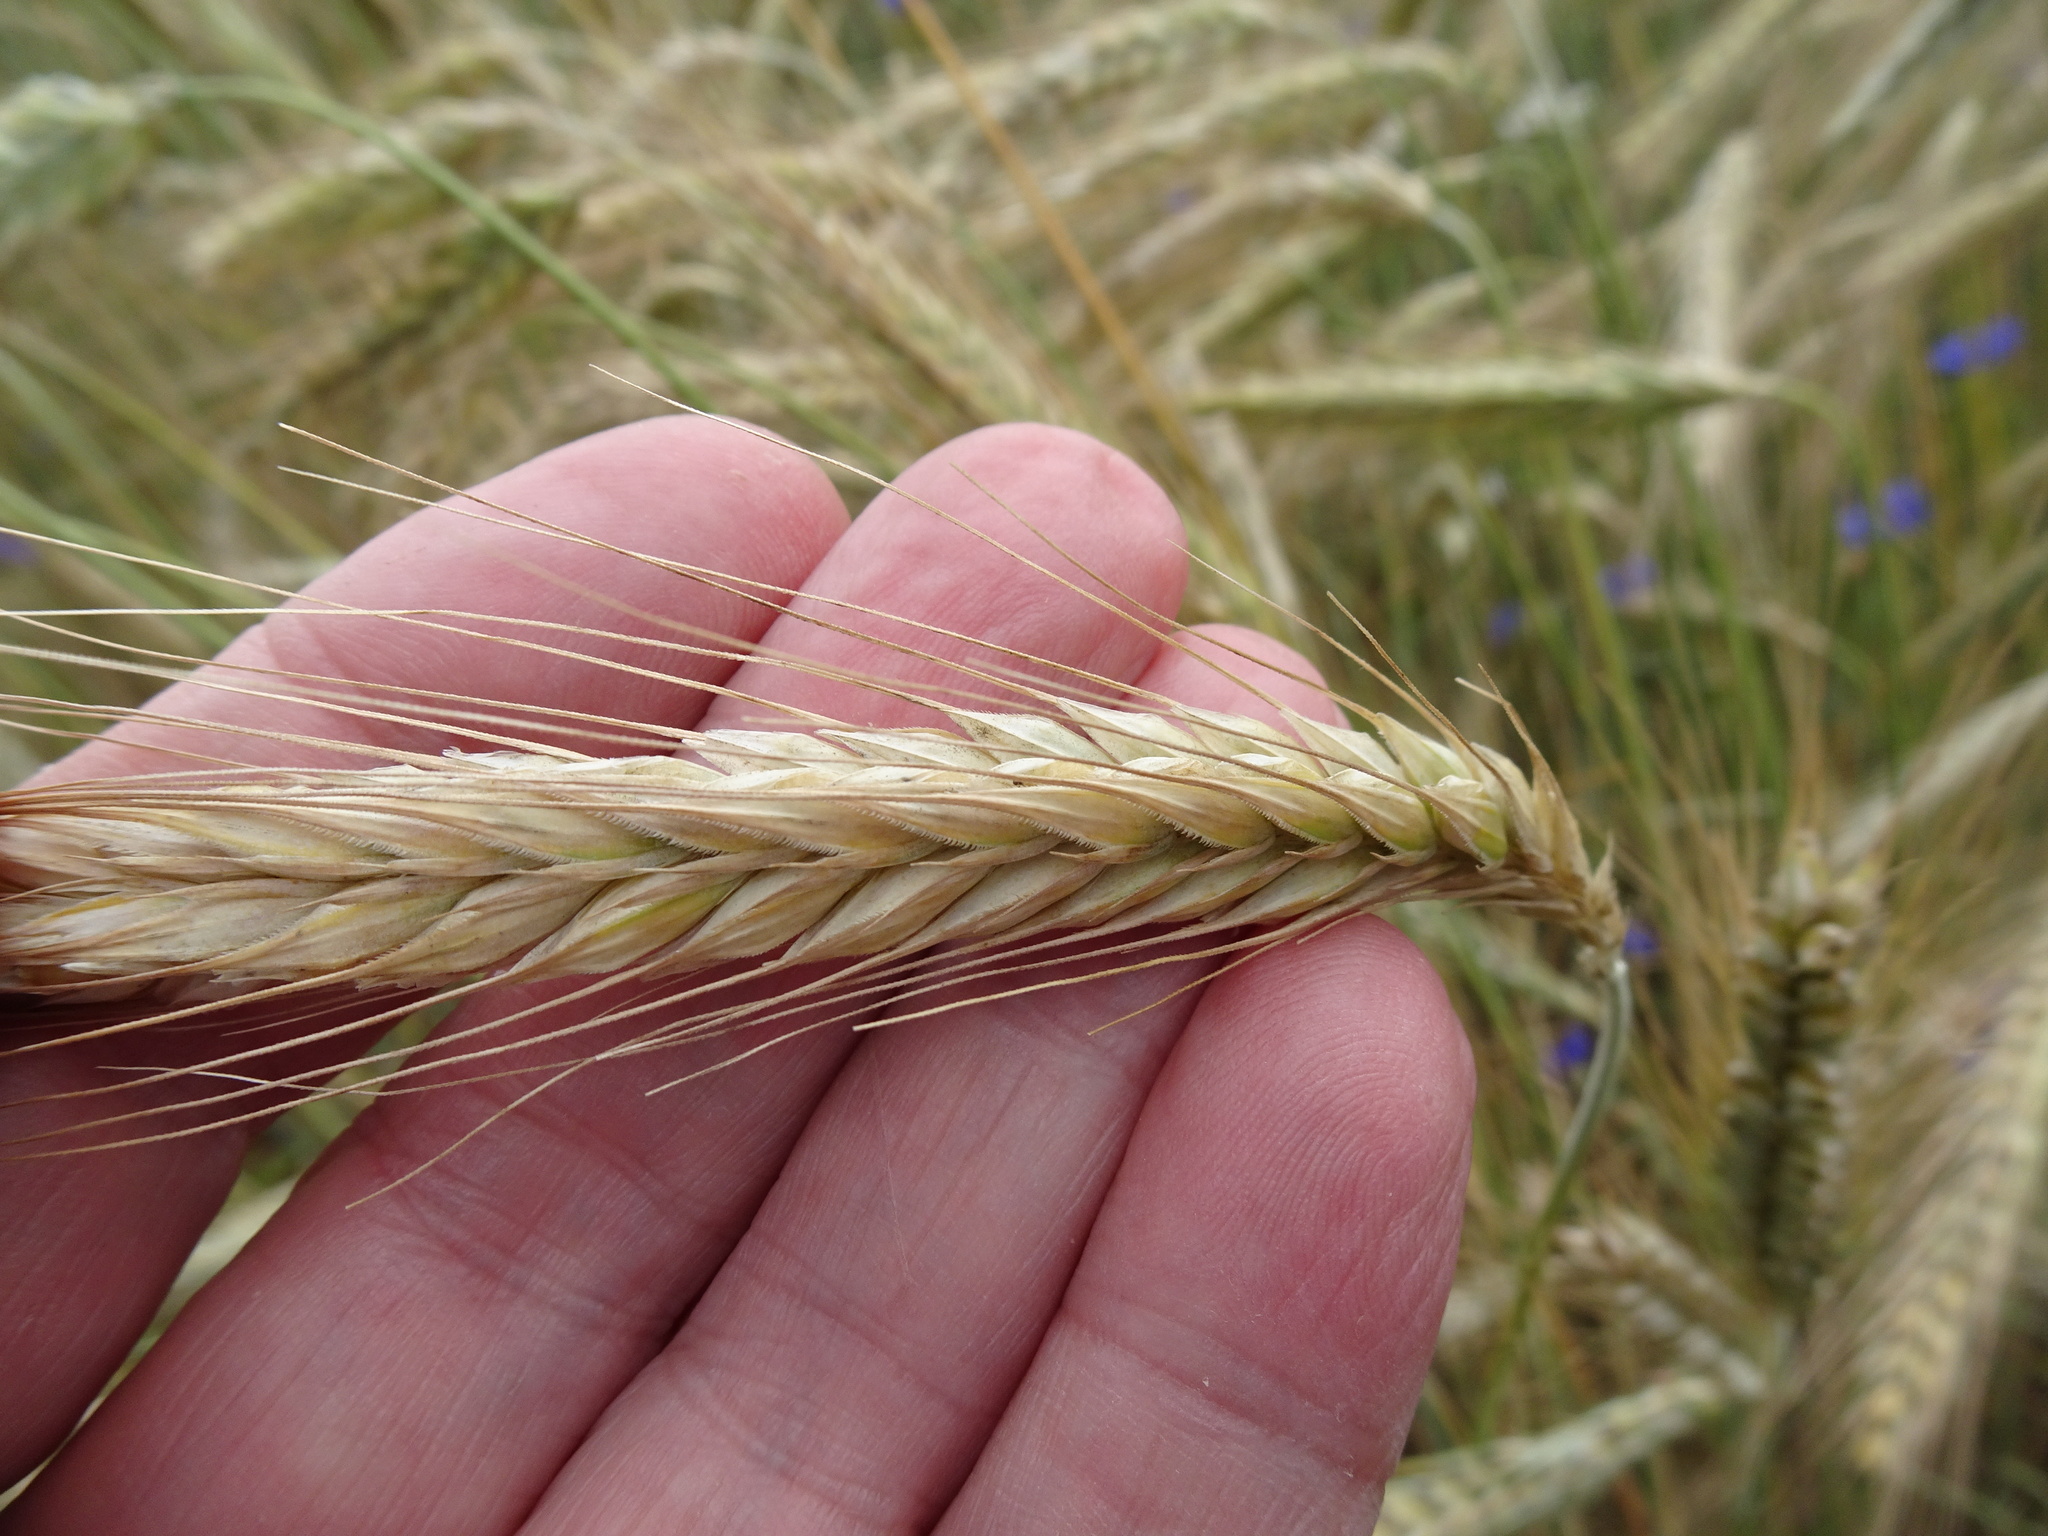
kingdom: Plantae
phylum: Tracheophyta
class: Liliopsida
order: Poales
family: Poaceae
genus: Secale
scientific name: Secale cereale
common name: Rye
